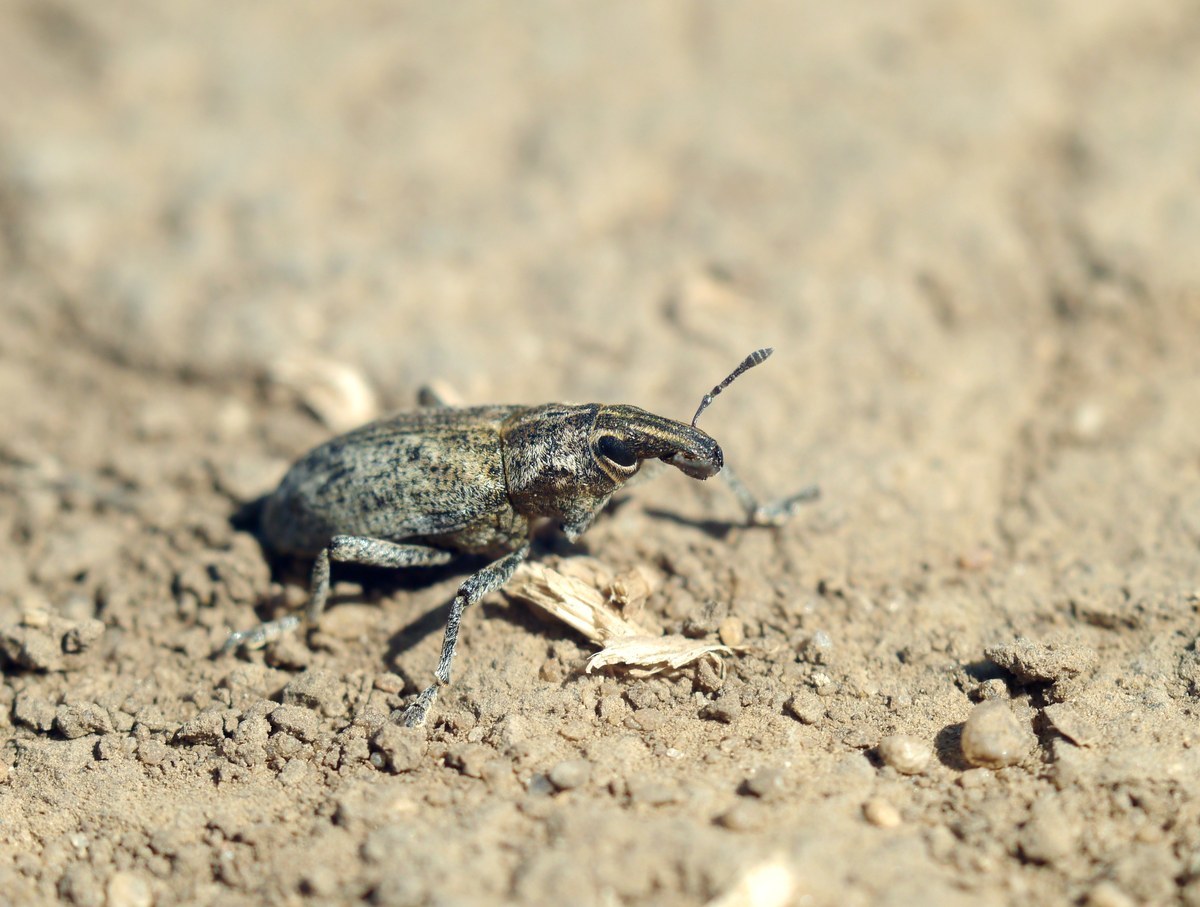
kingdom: Animalia
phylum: Arthropoda
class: Insecta
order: Coleoptera
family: Curculionidae
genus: Cleonis
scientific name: Cleonis pigra
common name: Large thistle weevil
